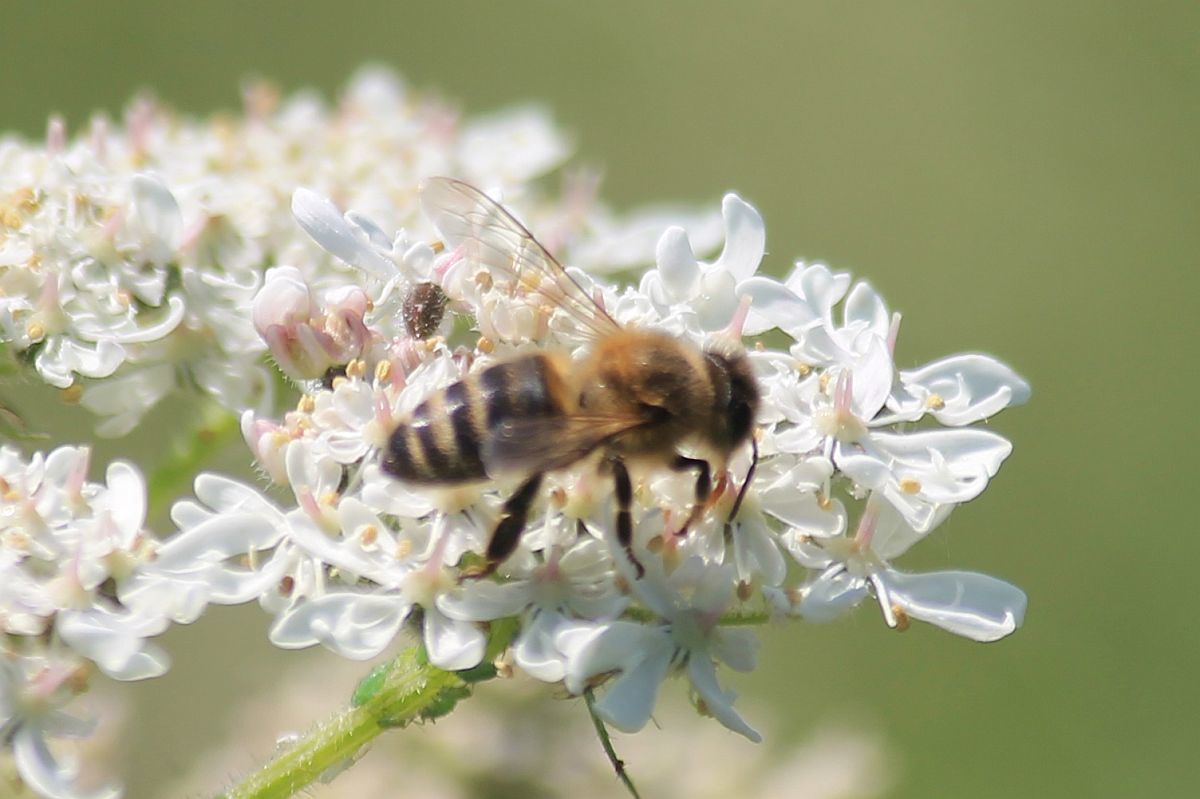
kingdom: Animalia
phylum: Arthropoda
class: Insecta
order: Hymenoptera
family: Apidae
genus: Apis
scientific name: Apis mellifera
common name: Honey bee
